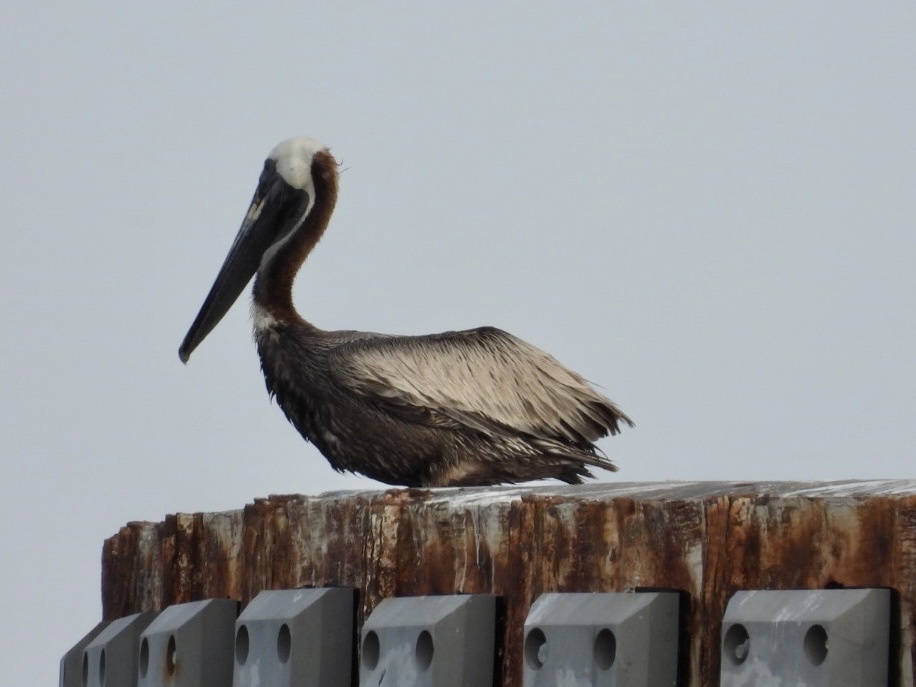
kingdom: Animalia
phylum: Chordata
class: Aves
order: Pelecaniformes
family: Pelecanidae
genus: Pelecanus
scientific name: Pelecanus occidentalis
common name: Brown pelican
